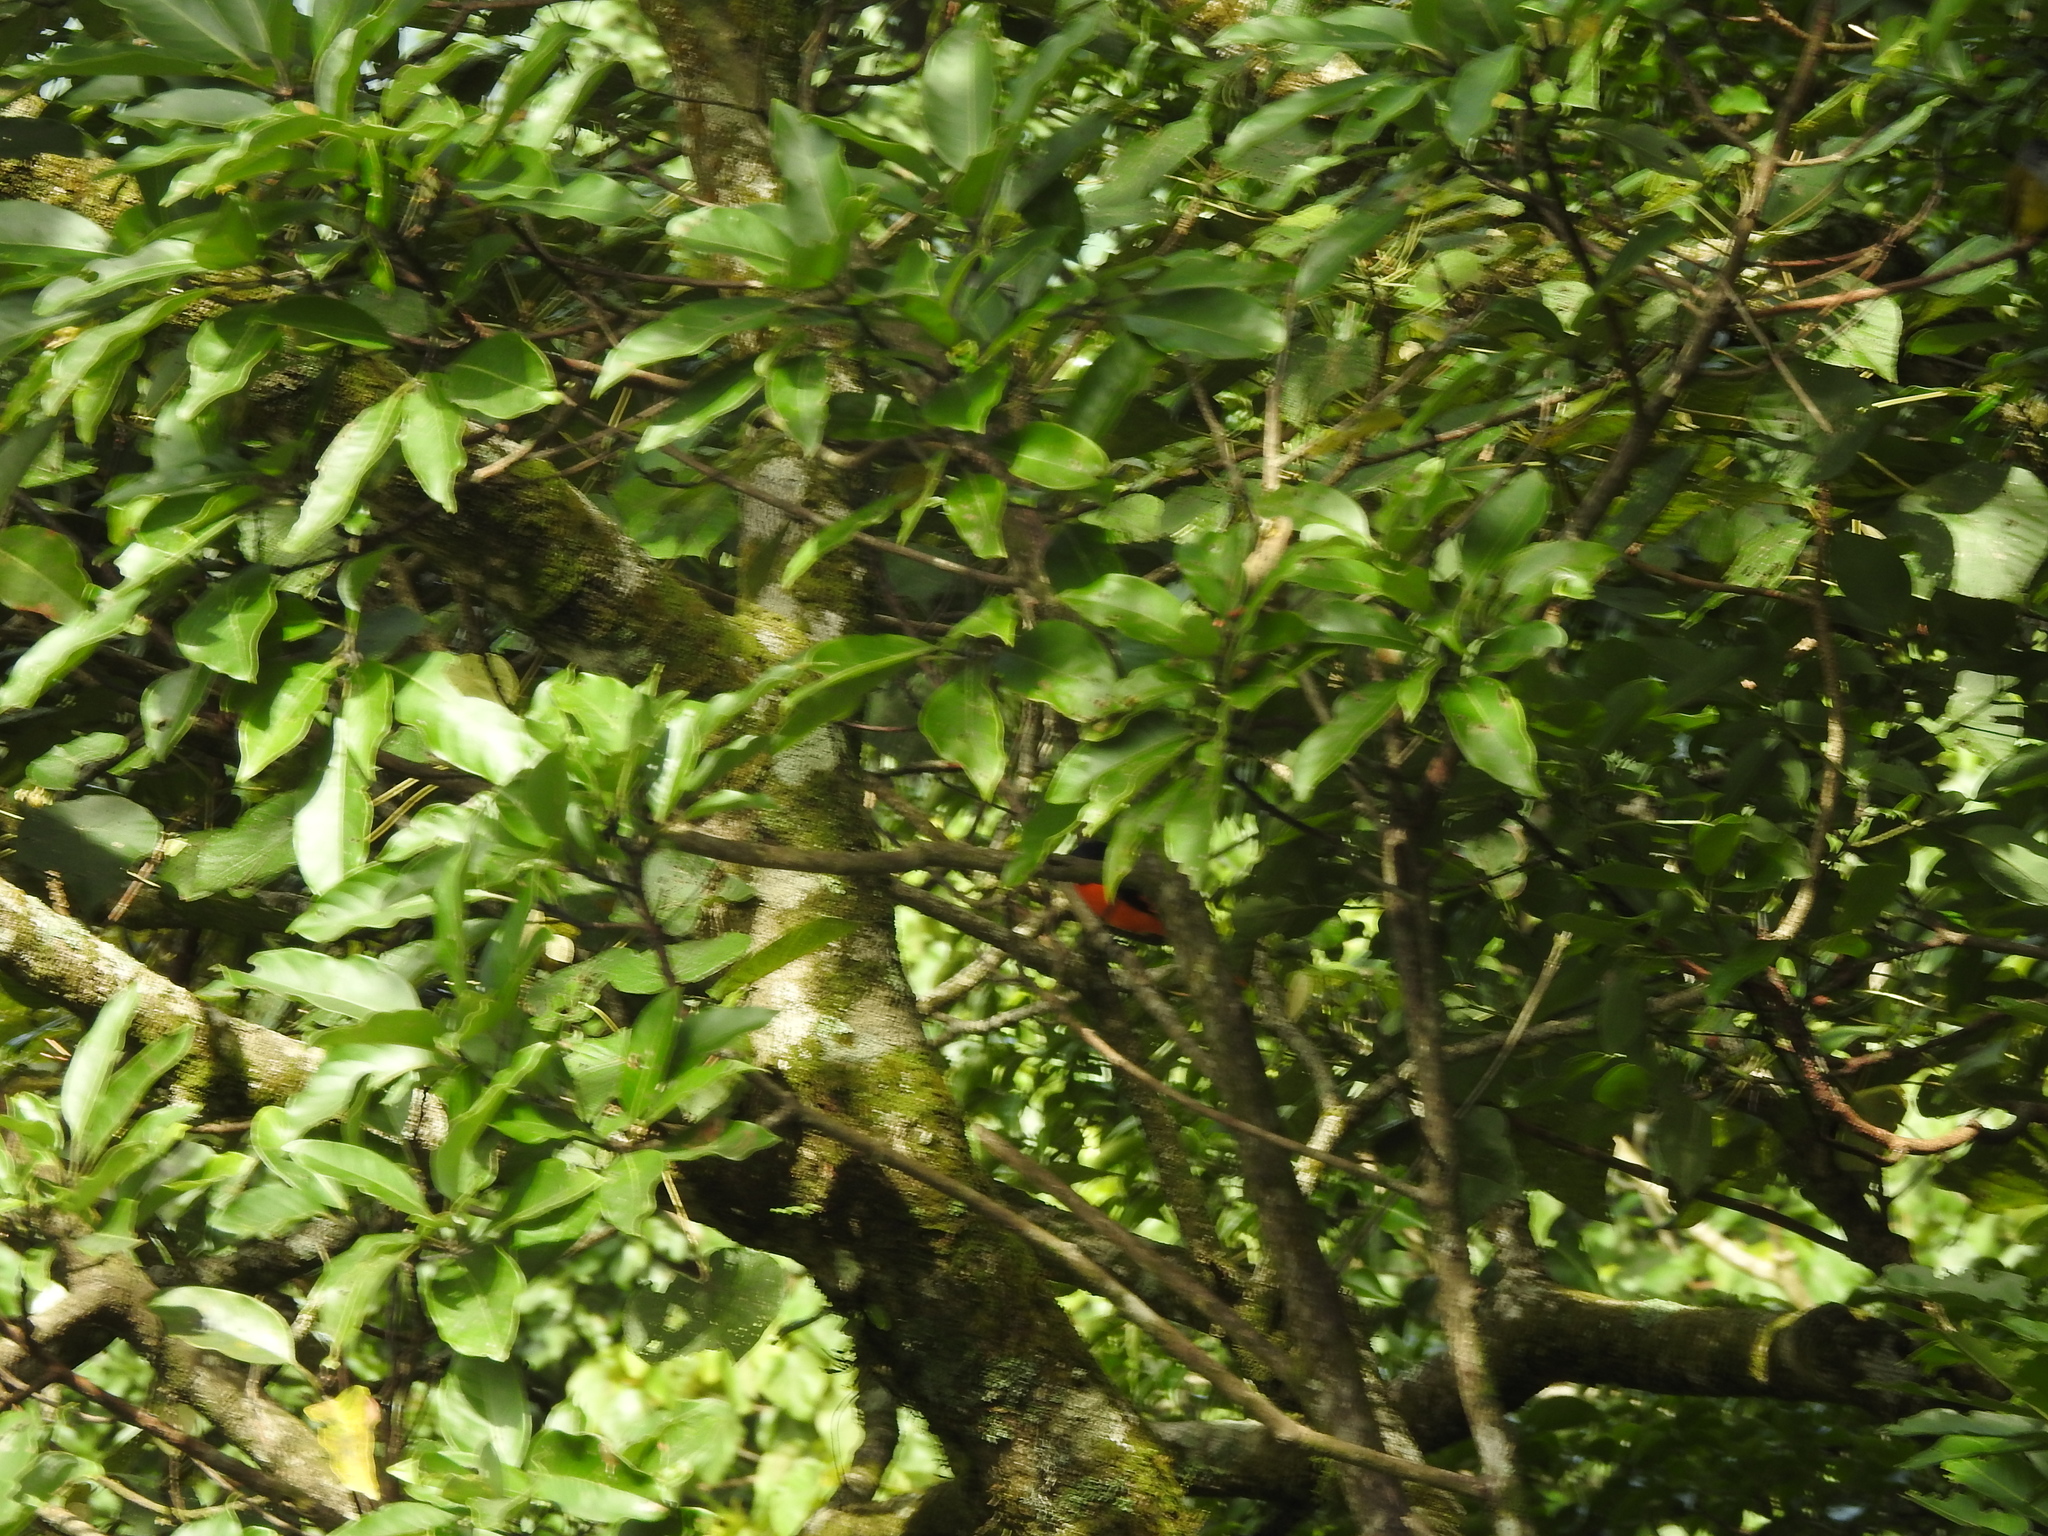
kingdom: Animalia
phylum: Chordata
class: Aves
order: Passeriformes
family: Campephagidae
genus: Pericrocotus
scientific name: Pericrocotus flammeus
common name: Orange minivet
